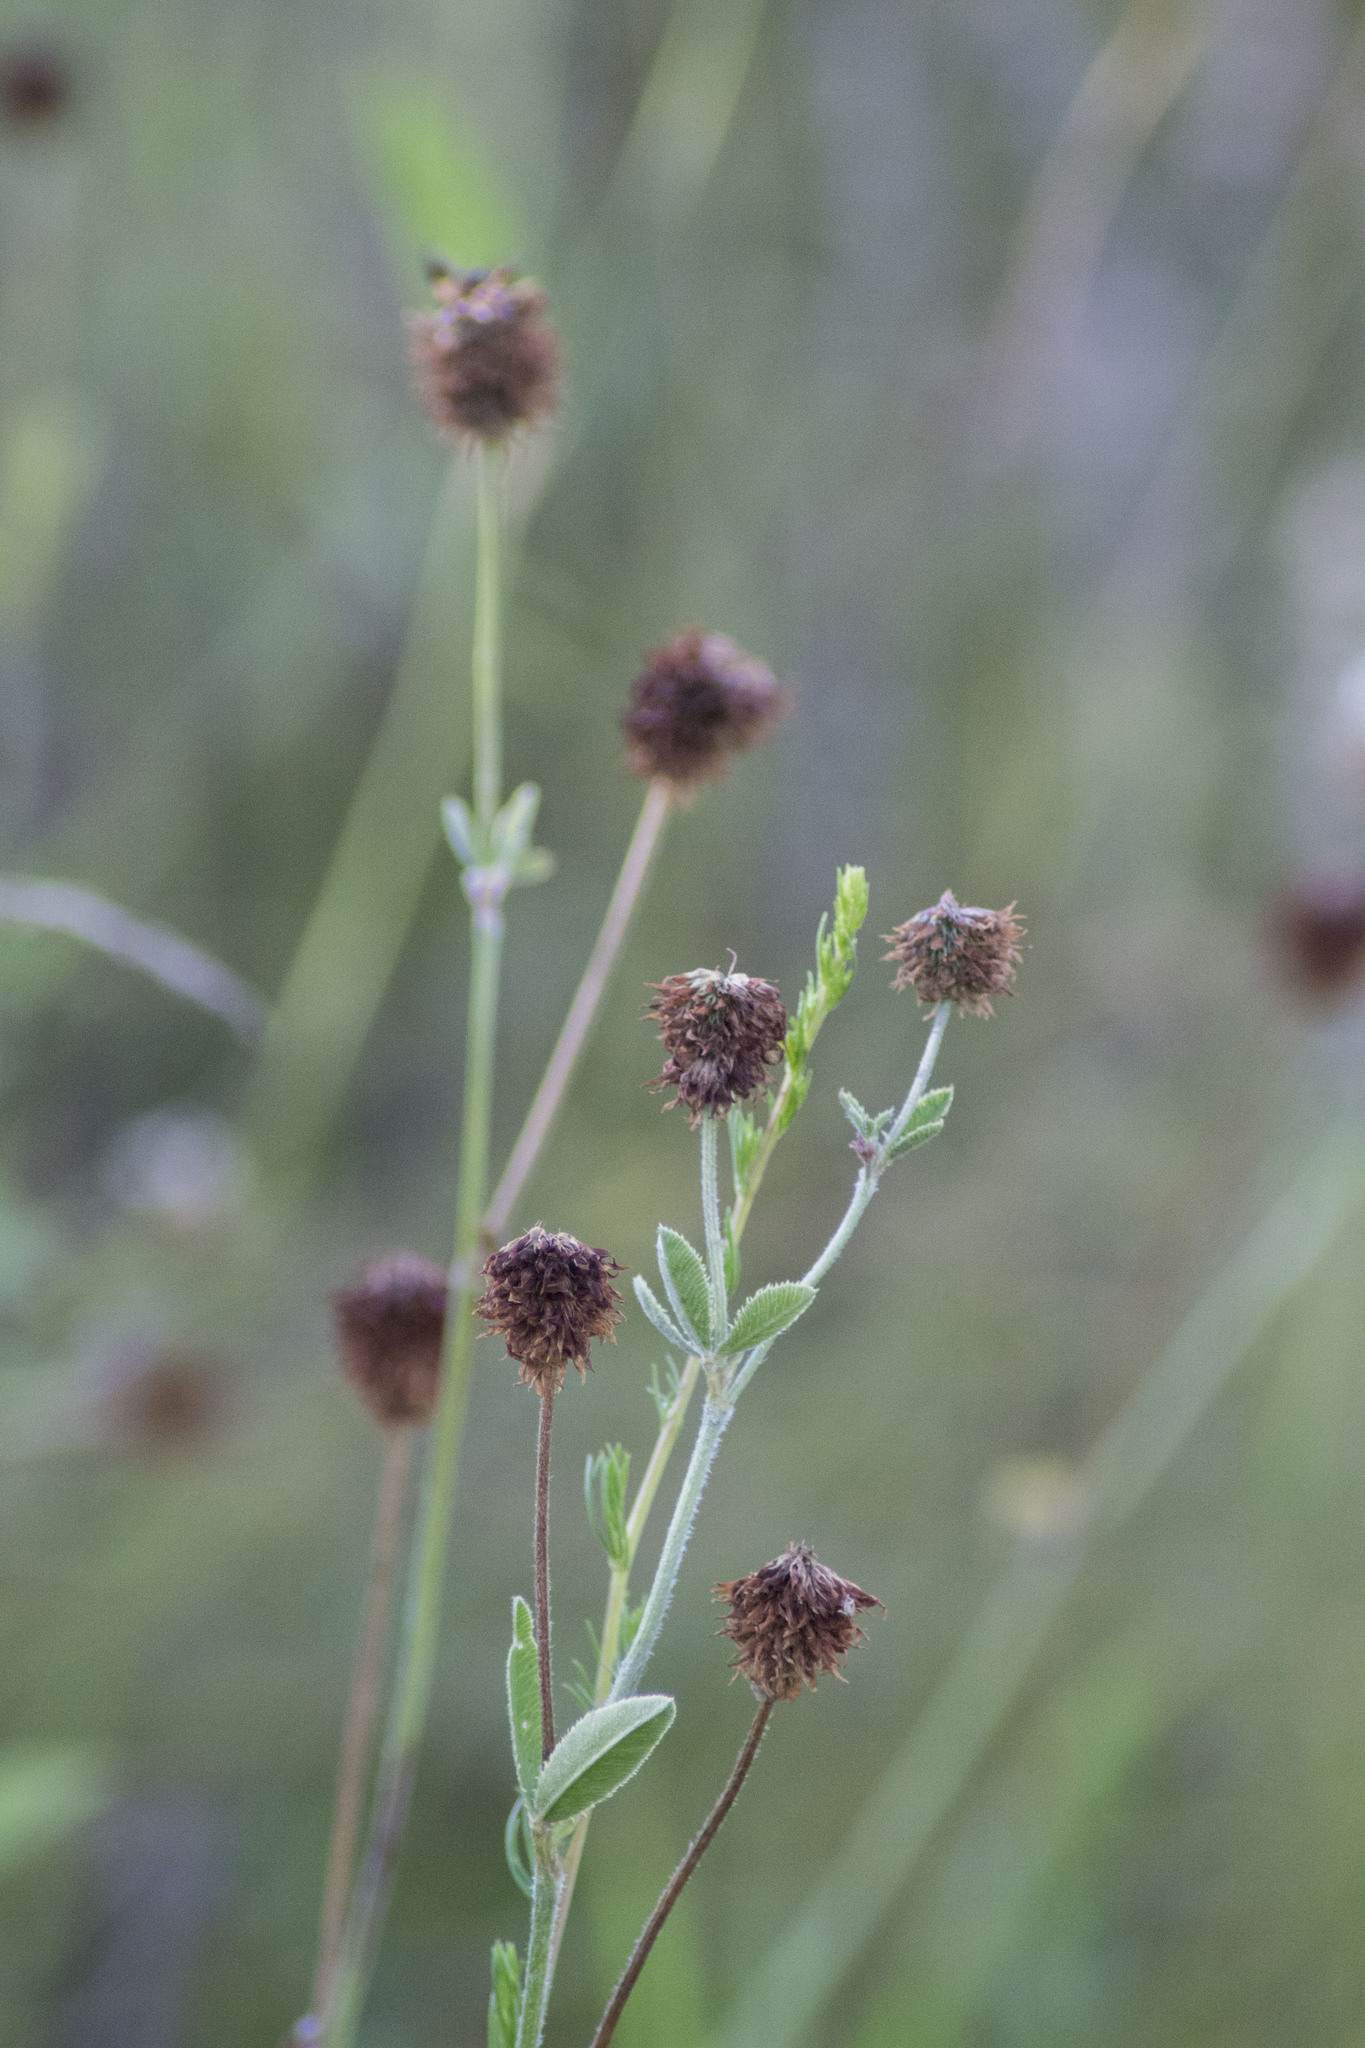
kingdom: Plantae
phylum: Tracheophyta
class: Magnoliopsida
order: Fabales
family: Fabaceae
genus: Trifolium
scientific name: Trifolium montanum
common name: Mountain clover
